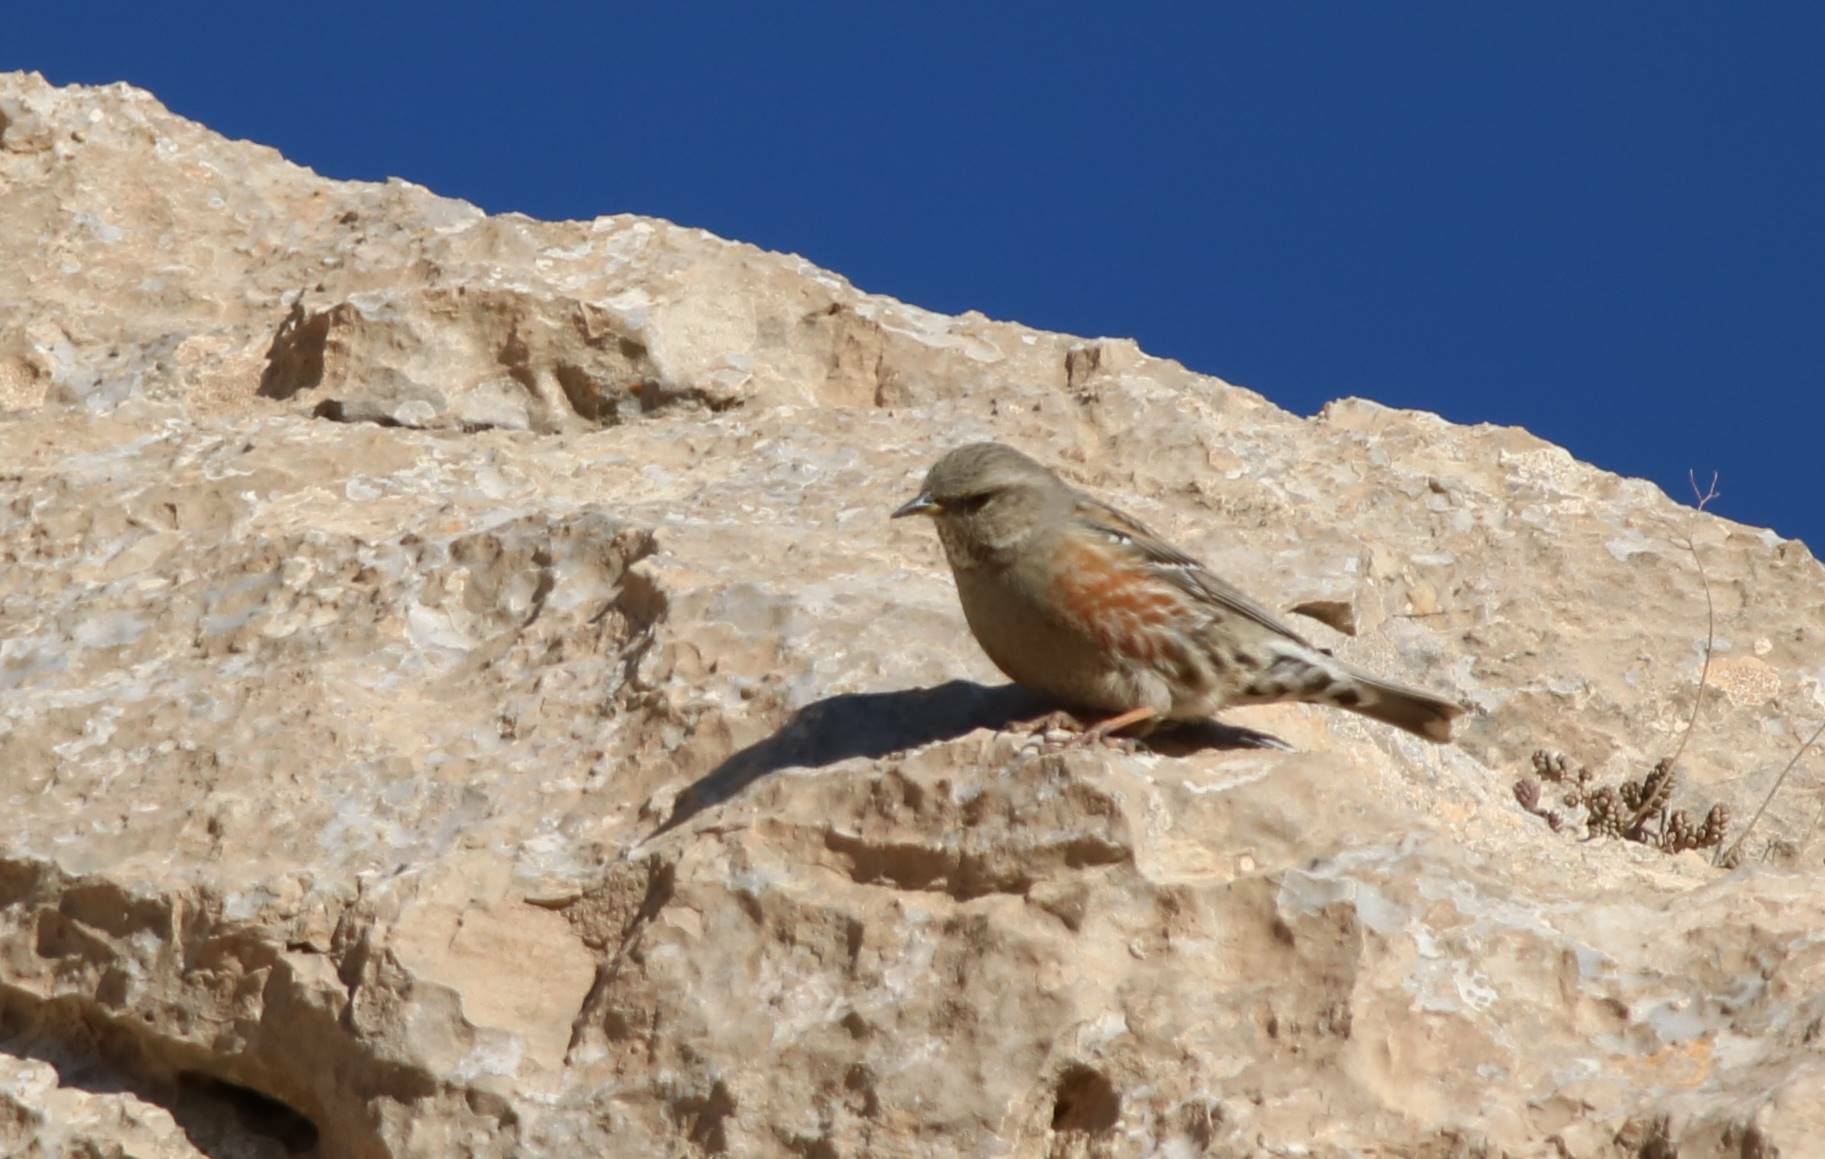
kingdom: Animalia
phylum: Chordata
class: Aves
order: Passeriformes
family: Prunellidae
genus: Prunella
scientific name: Prunella collaris
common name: Alpine accentor
